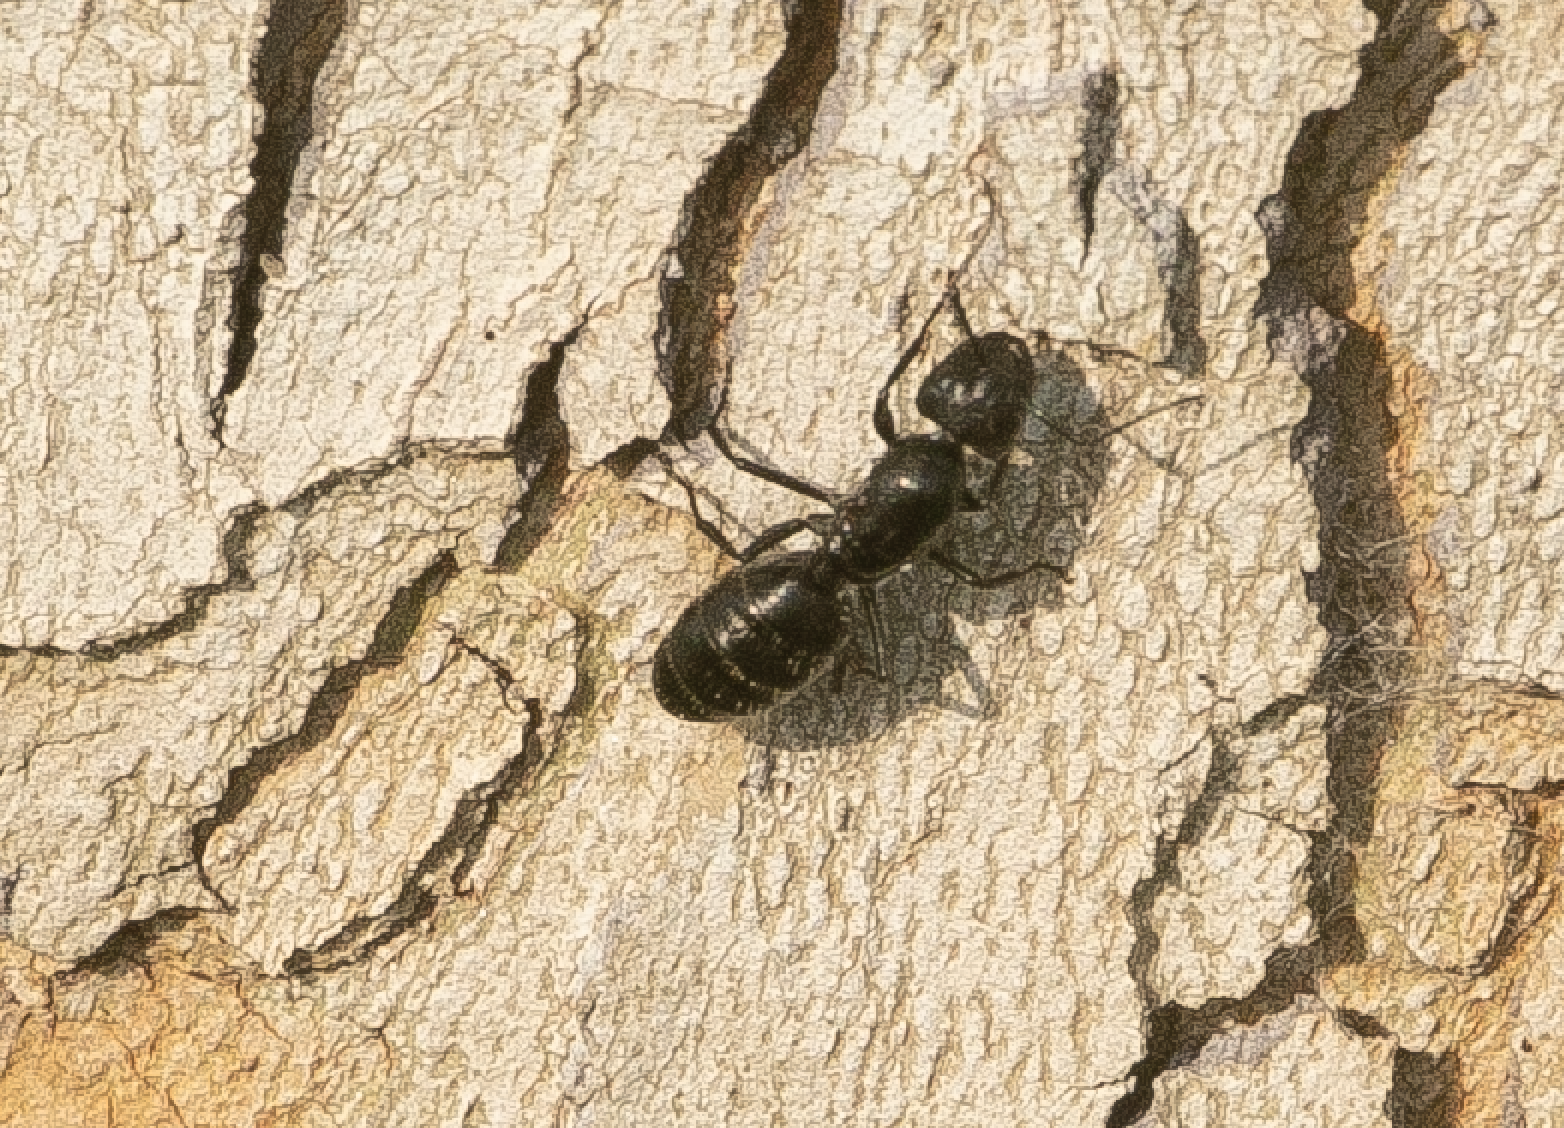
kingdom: Animalia
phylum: Arthropoda
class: Insecta
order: Hymenoptera
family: Formicidae
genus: Camponotus
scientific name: Camponotus vagus
